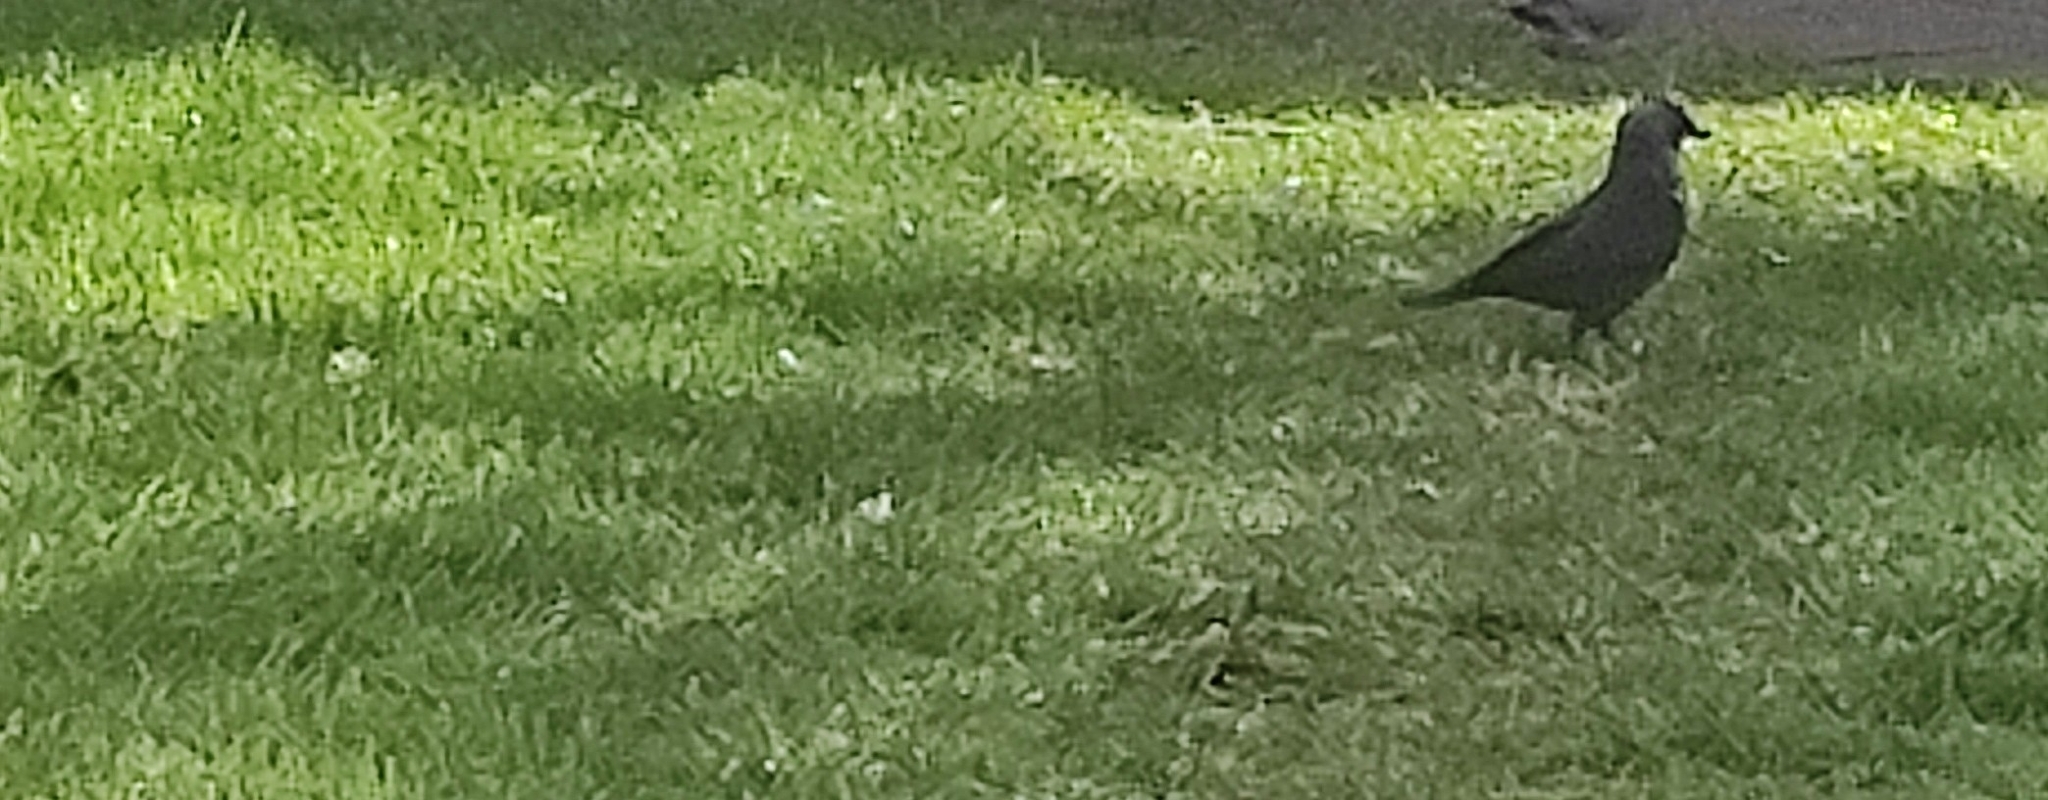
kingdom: Animalia
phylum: Chordata
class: Aves
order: Passeriformes
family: Corvidae
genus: Coloeus
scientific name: Coloeus monedula
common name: Western jackdaw
